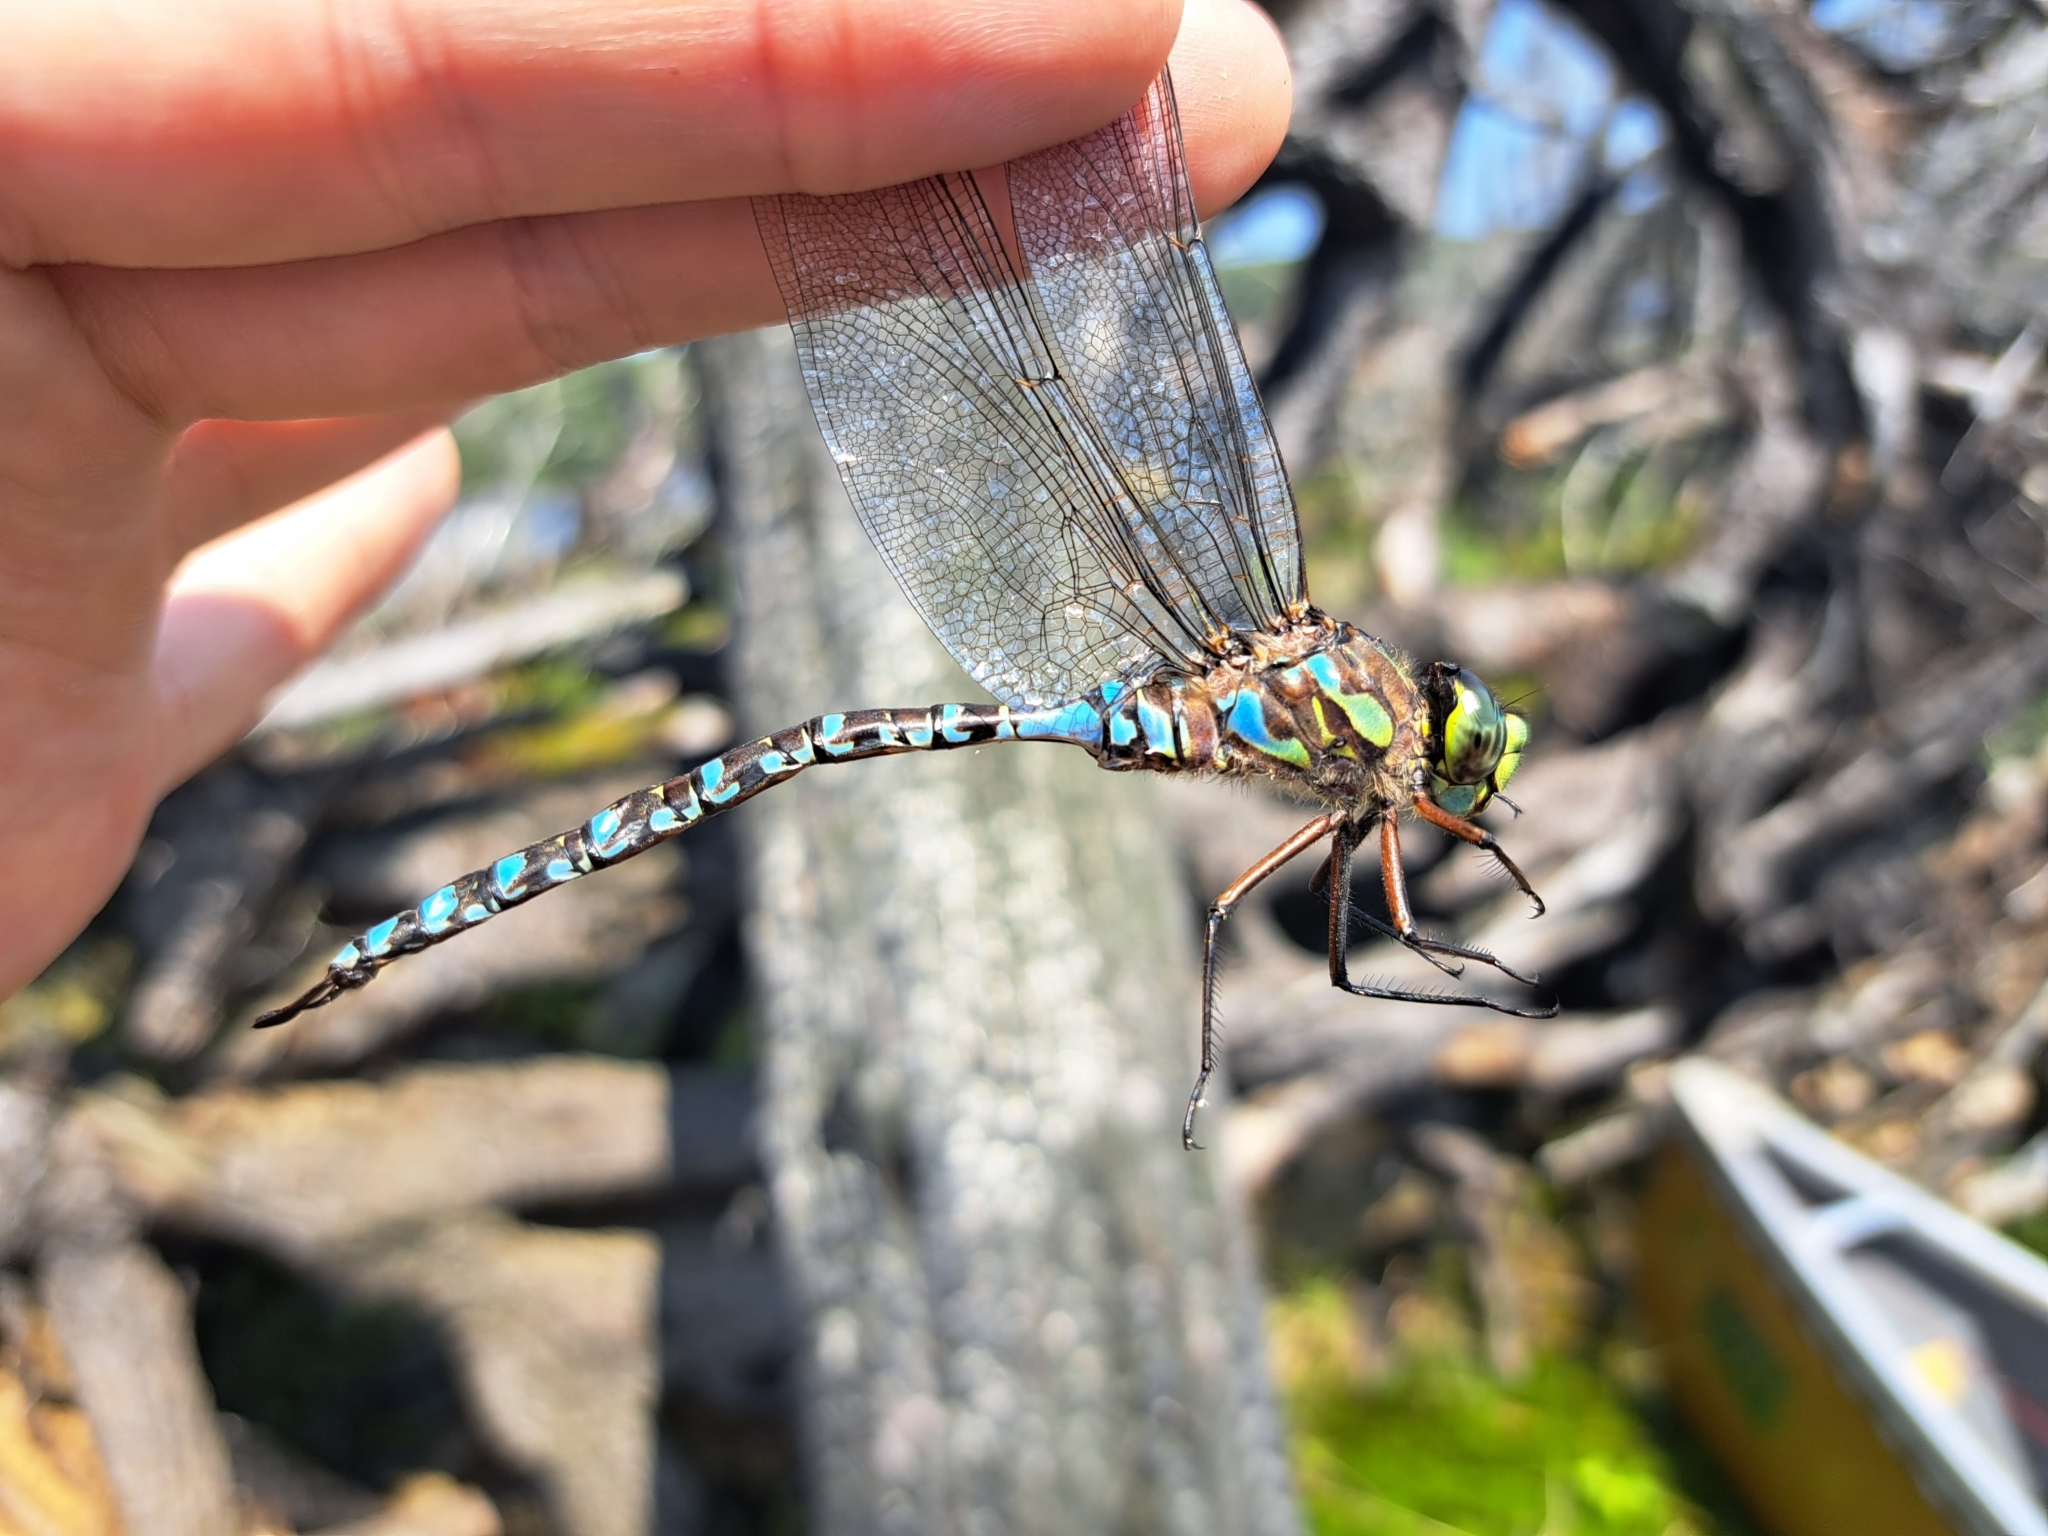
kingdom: Animalia
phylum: Arthropoda
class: Insecta
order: Odonata
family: Aeshnidae
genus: Aeshna
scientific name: Aeshna eremita
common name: Lake darner
